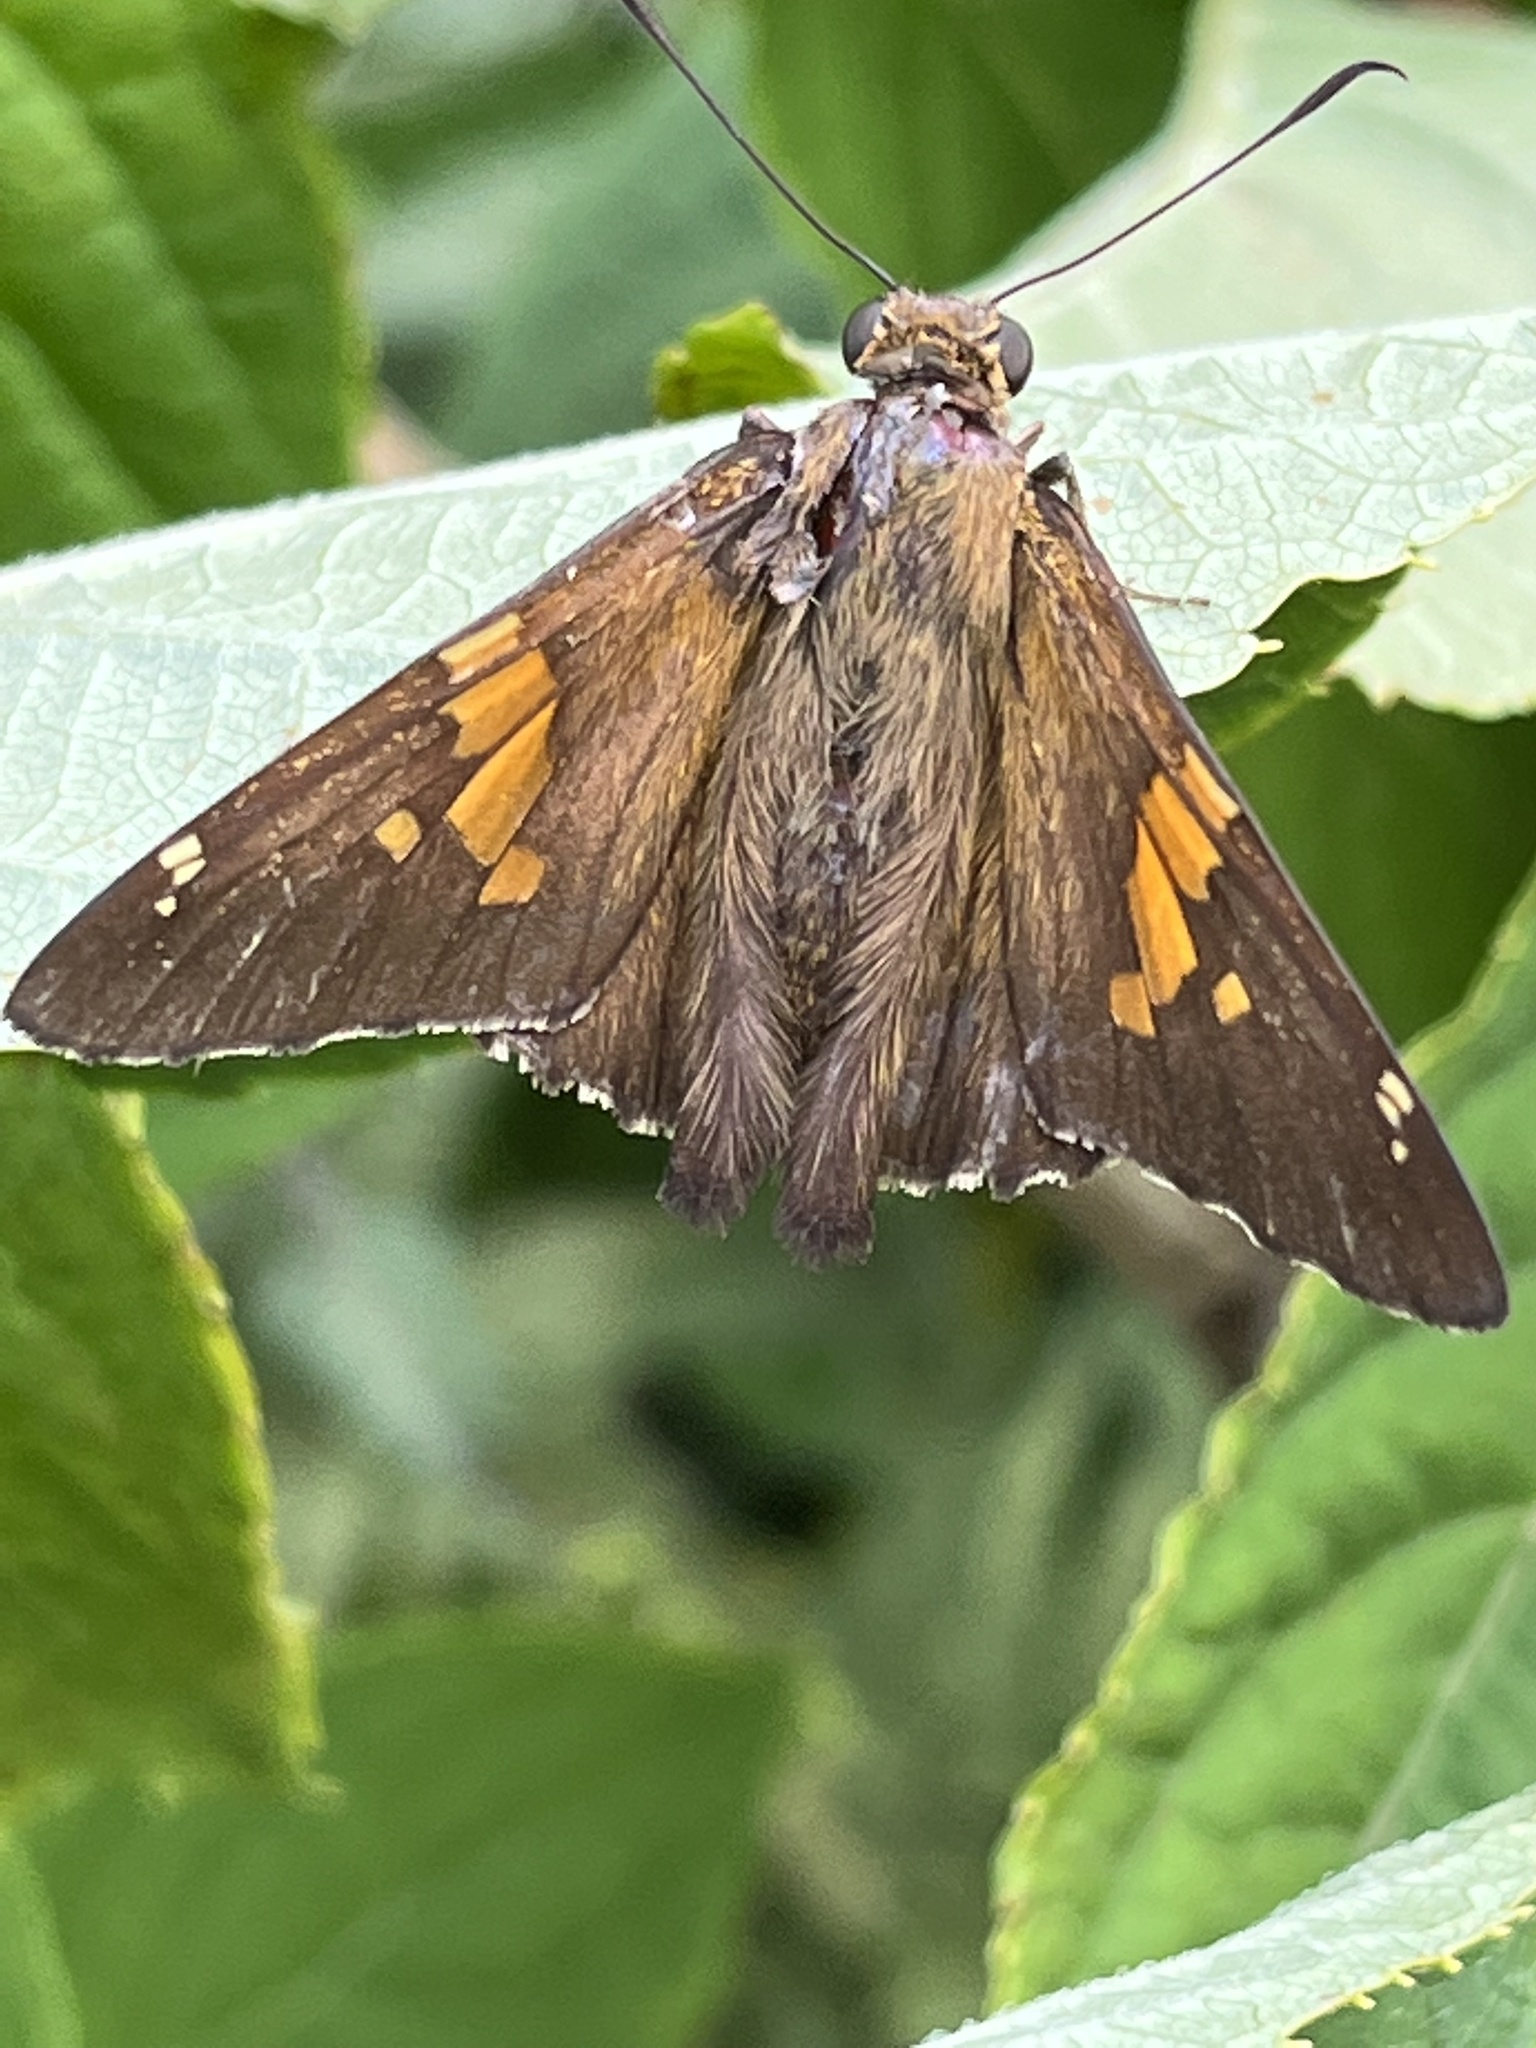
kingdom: Animalia
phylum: Arthropoda
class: Insecta
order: Lepidoptera
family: Hesperiidae
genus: Epargyreus
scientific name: Epargyreus clarus
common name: Silver-spotted skipper
